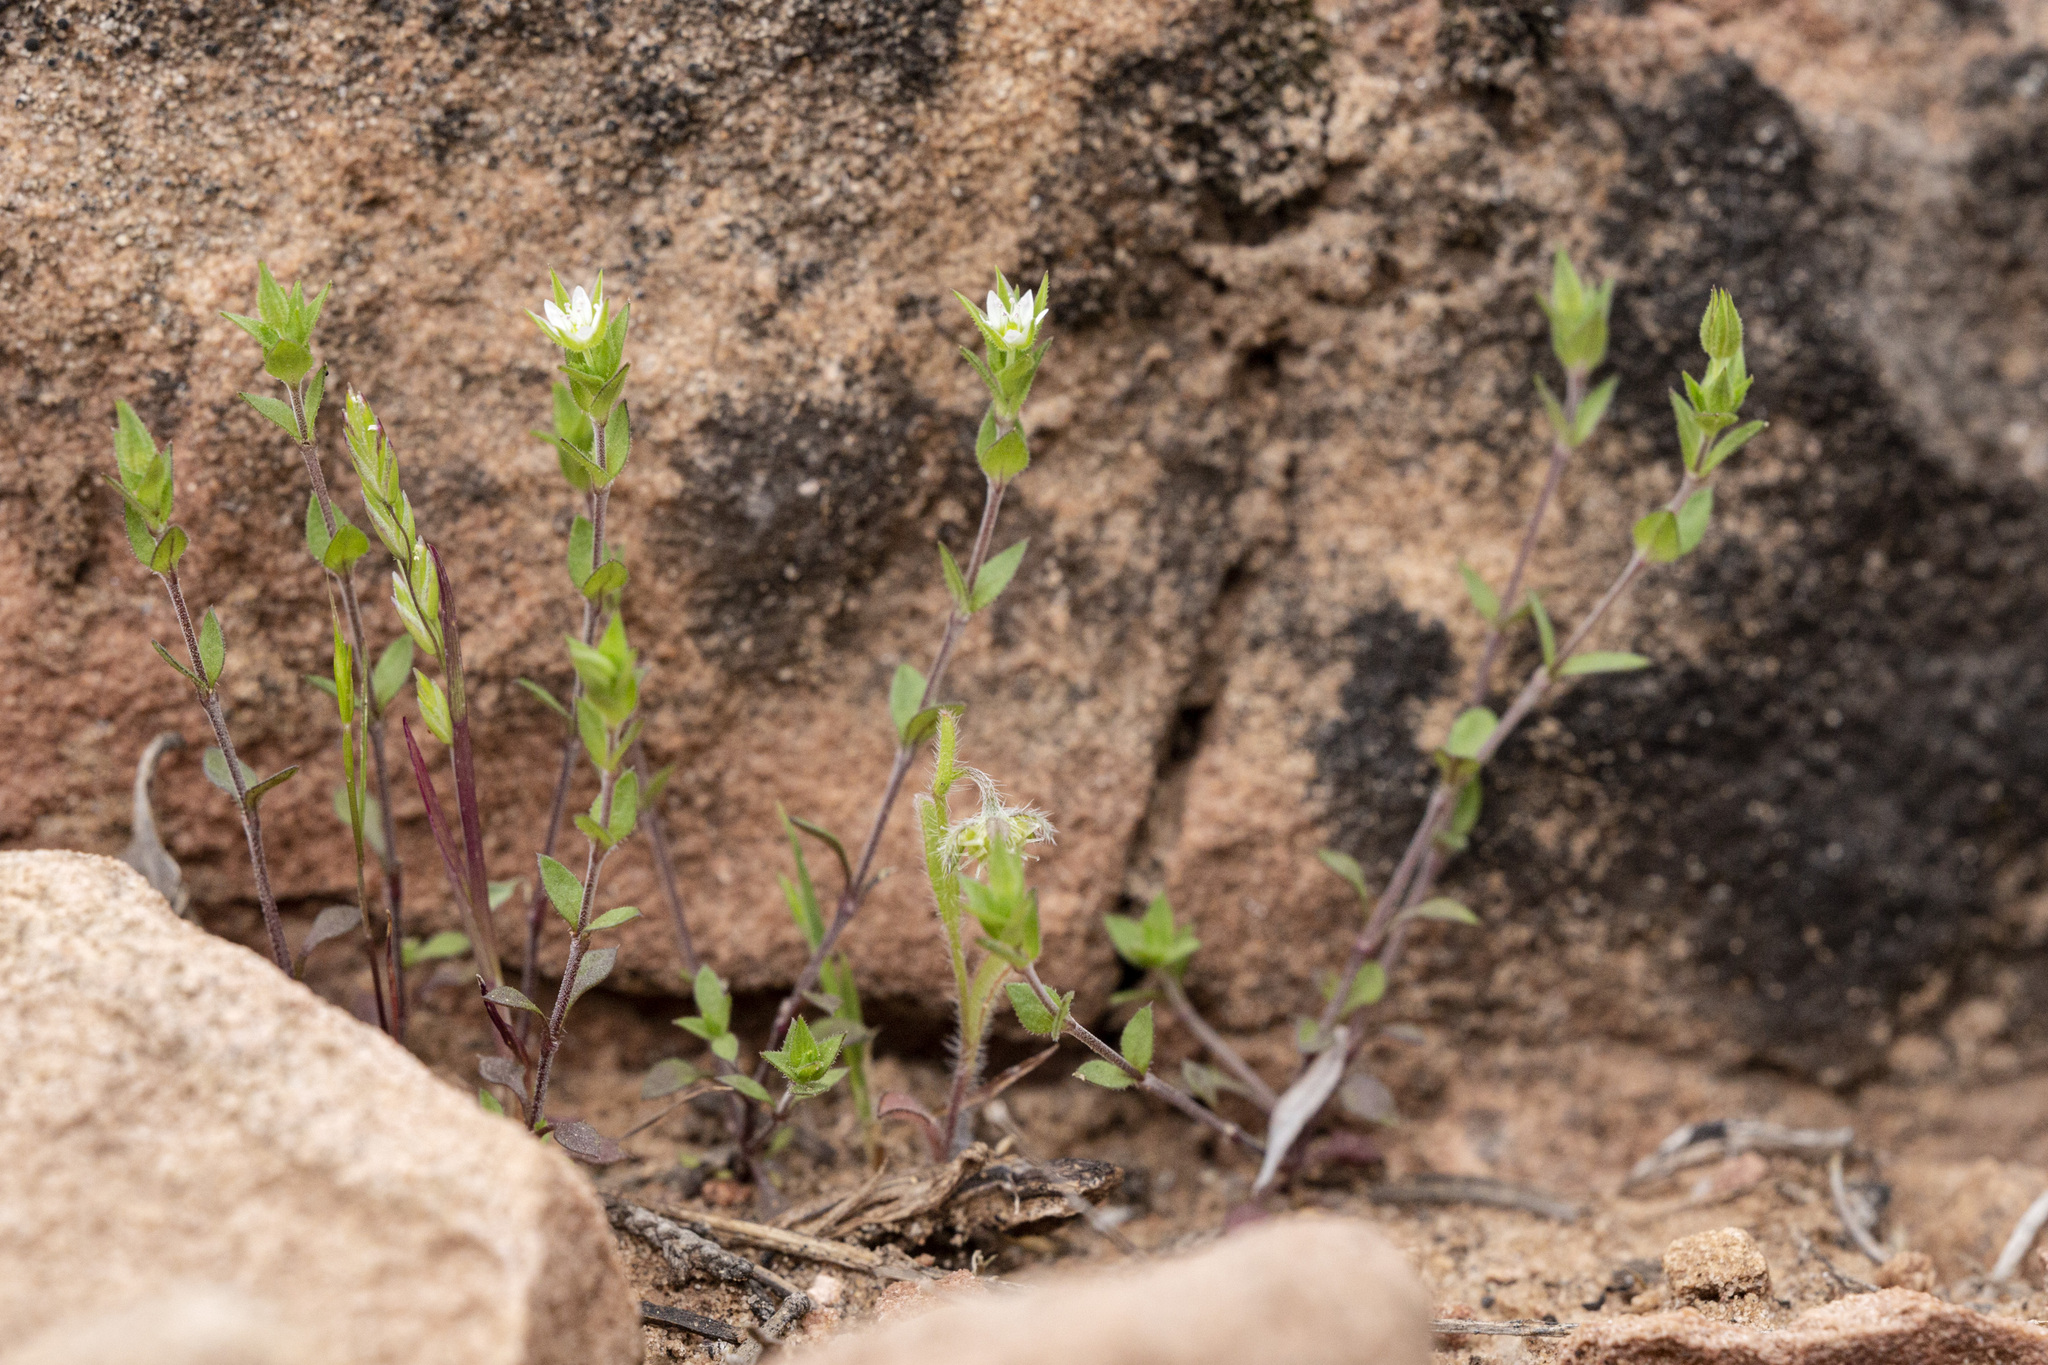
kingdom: Plantae
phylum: Tracheophyta
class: Magnoliopsida
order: Caryophyllales
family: Caryophyllaceae
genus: Arenaria
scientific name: Arenaria serpyllifolia
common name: Thyme-leaved sandwort
